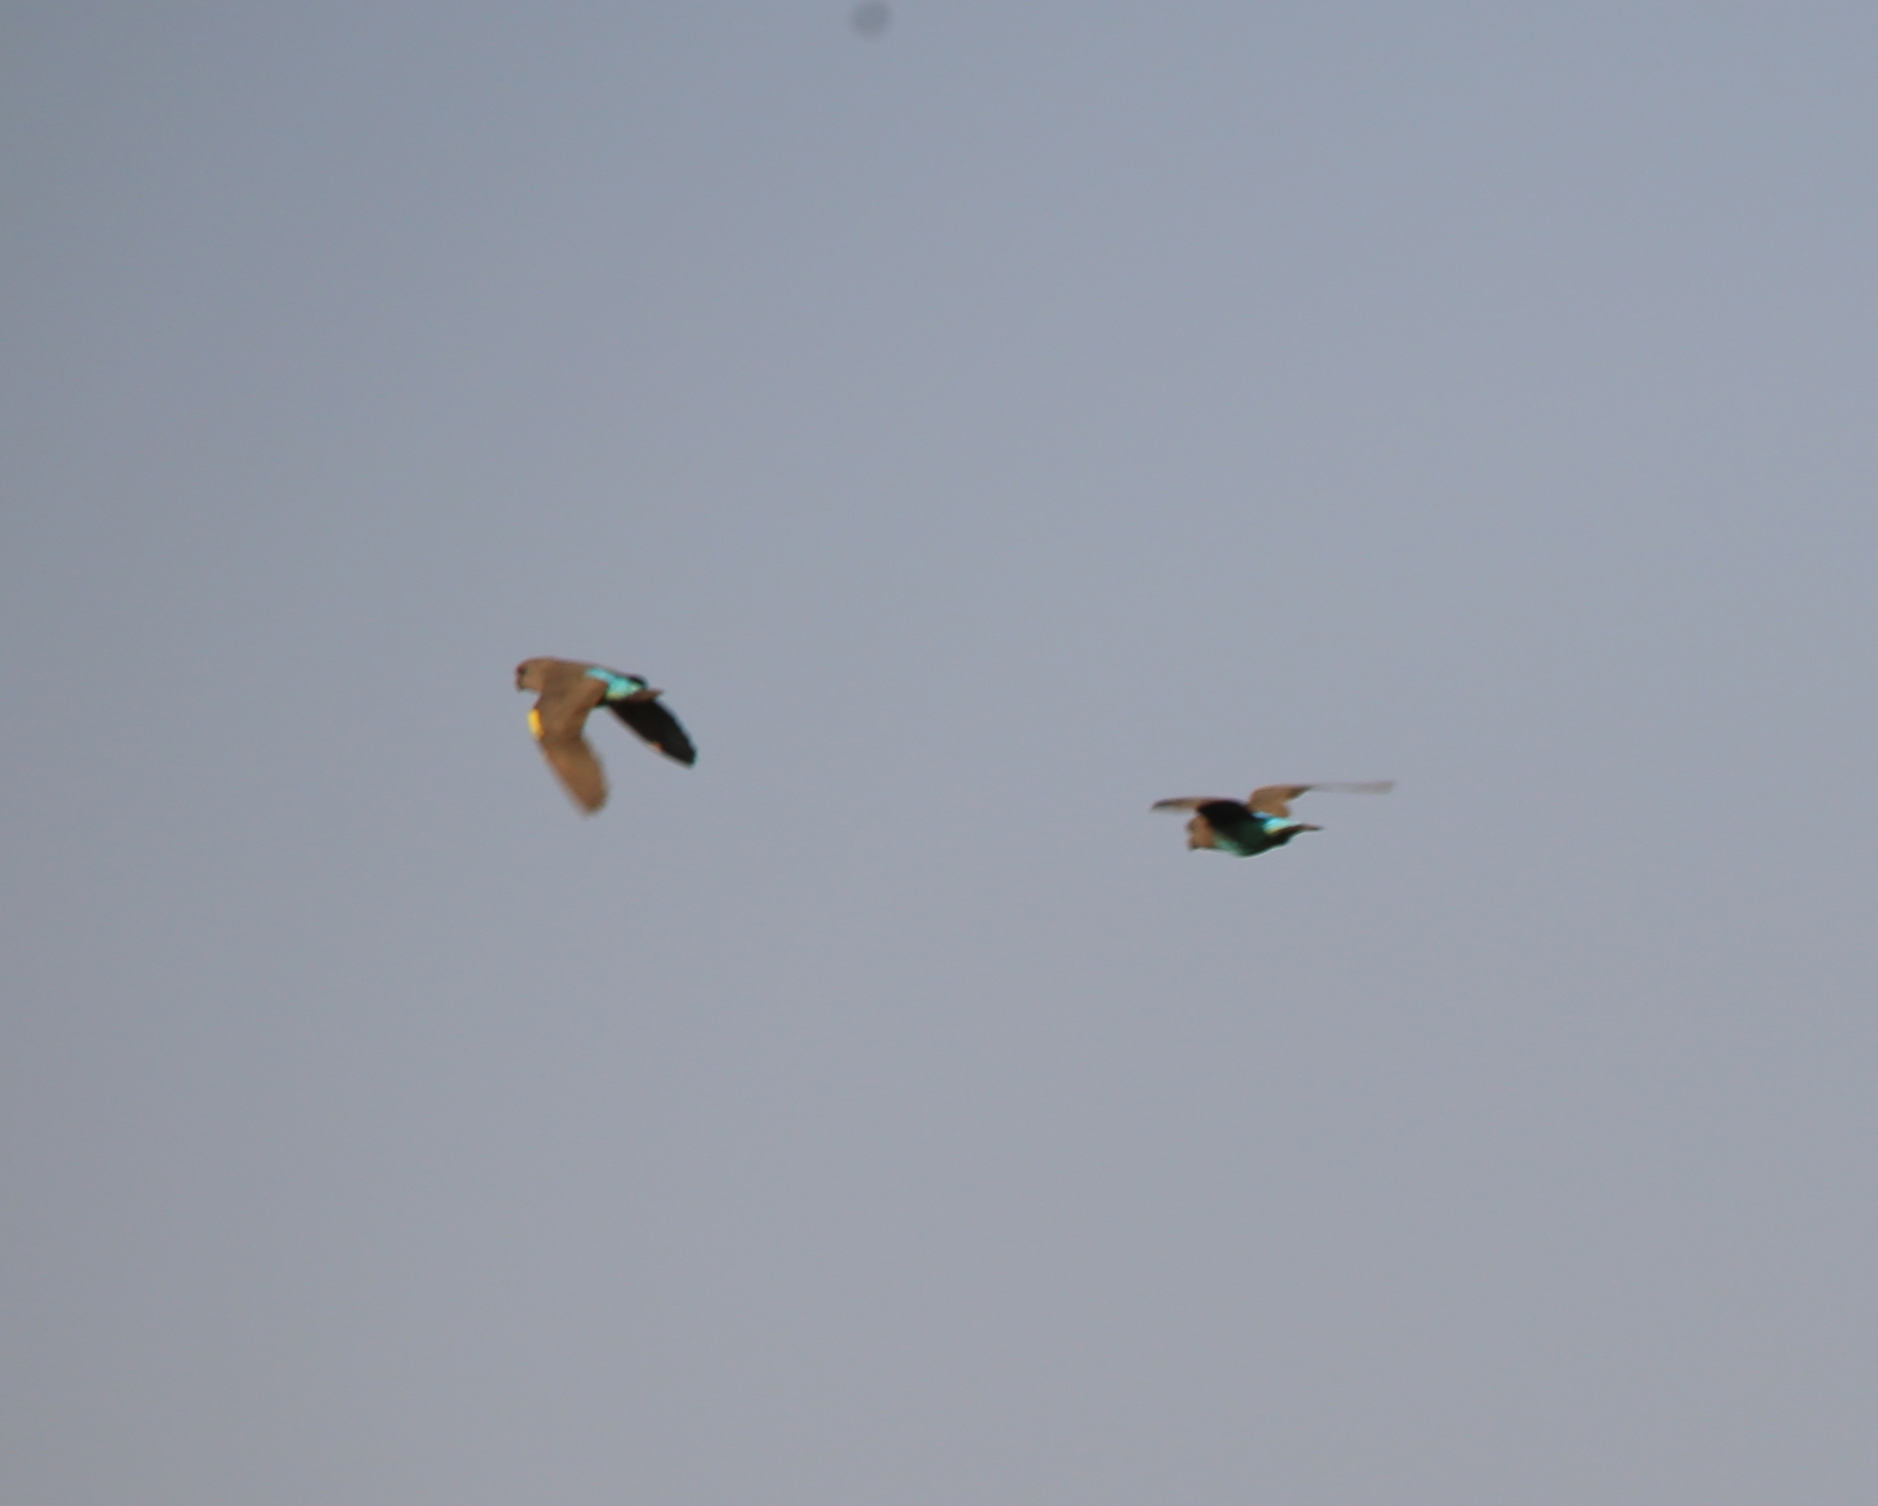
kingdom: Animalia
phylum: Chordata
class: Aves
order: Psittaciformes
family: Psittacidae
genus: Poicephalus
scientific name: Poicephalus meyeri
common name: Meyer's parrot
